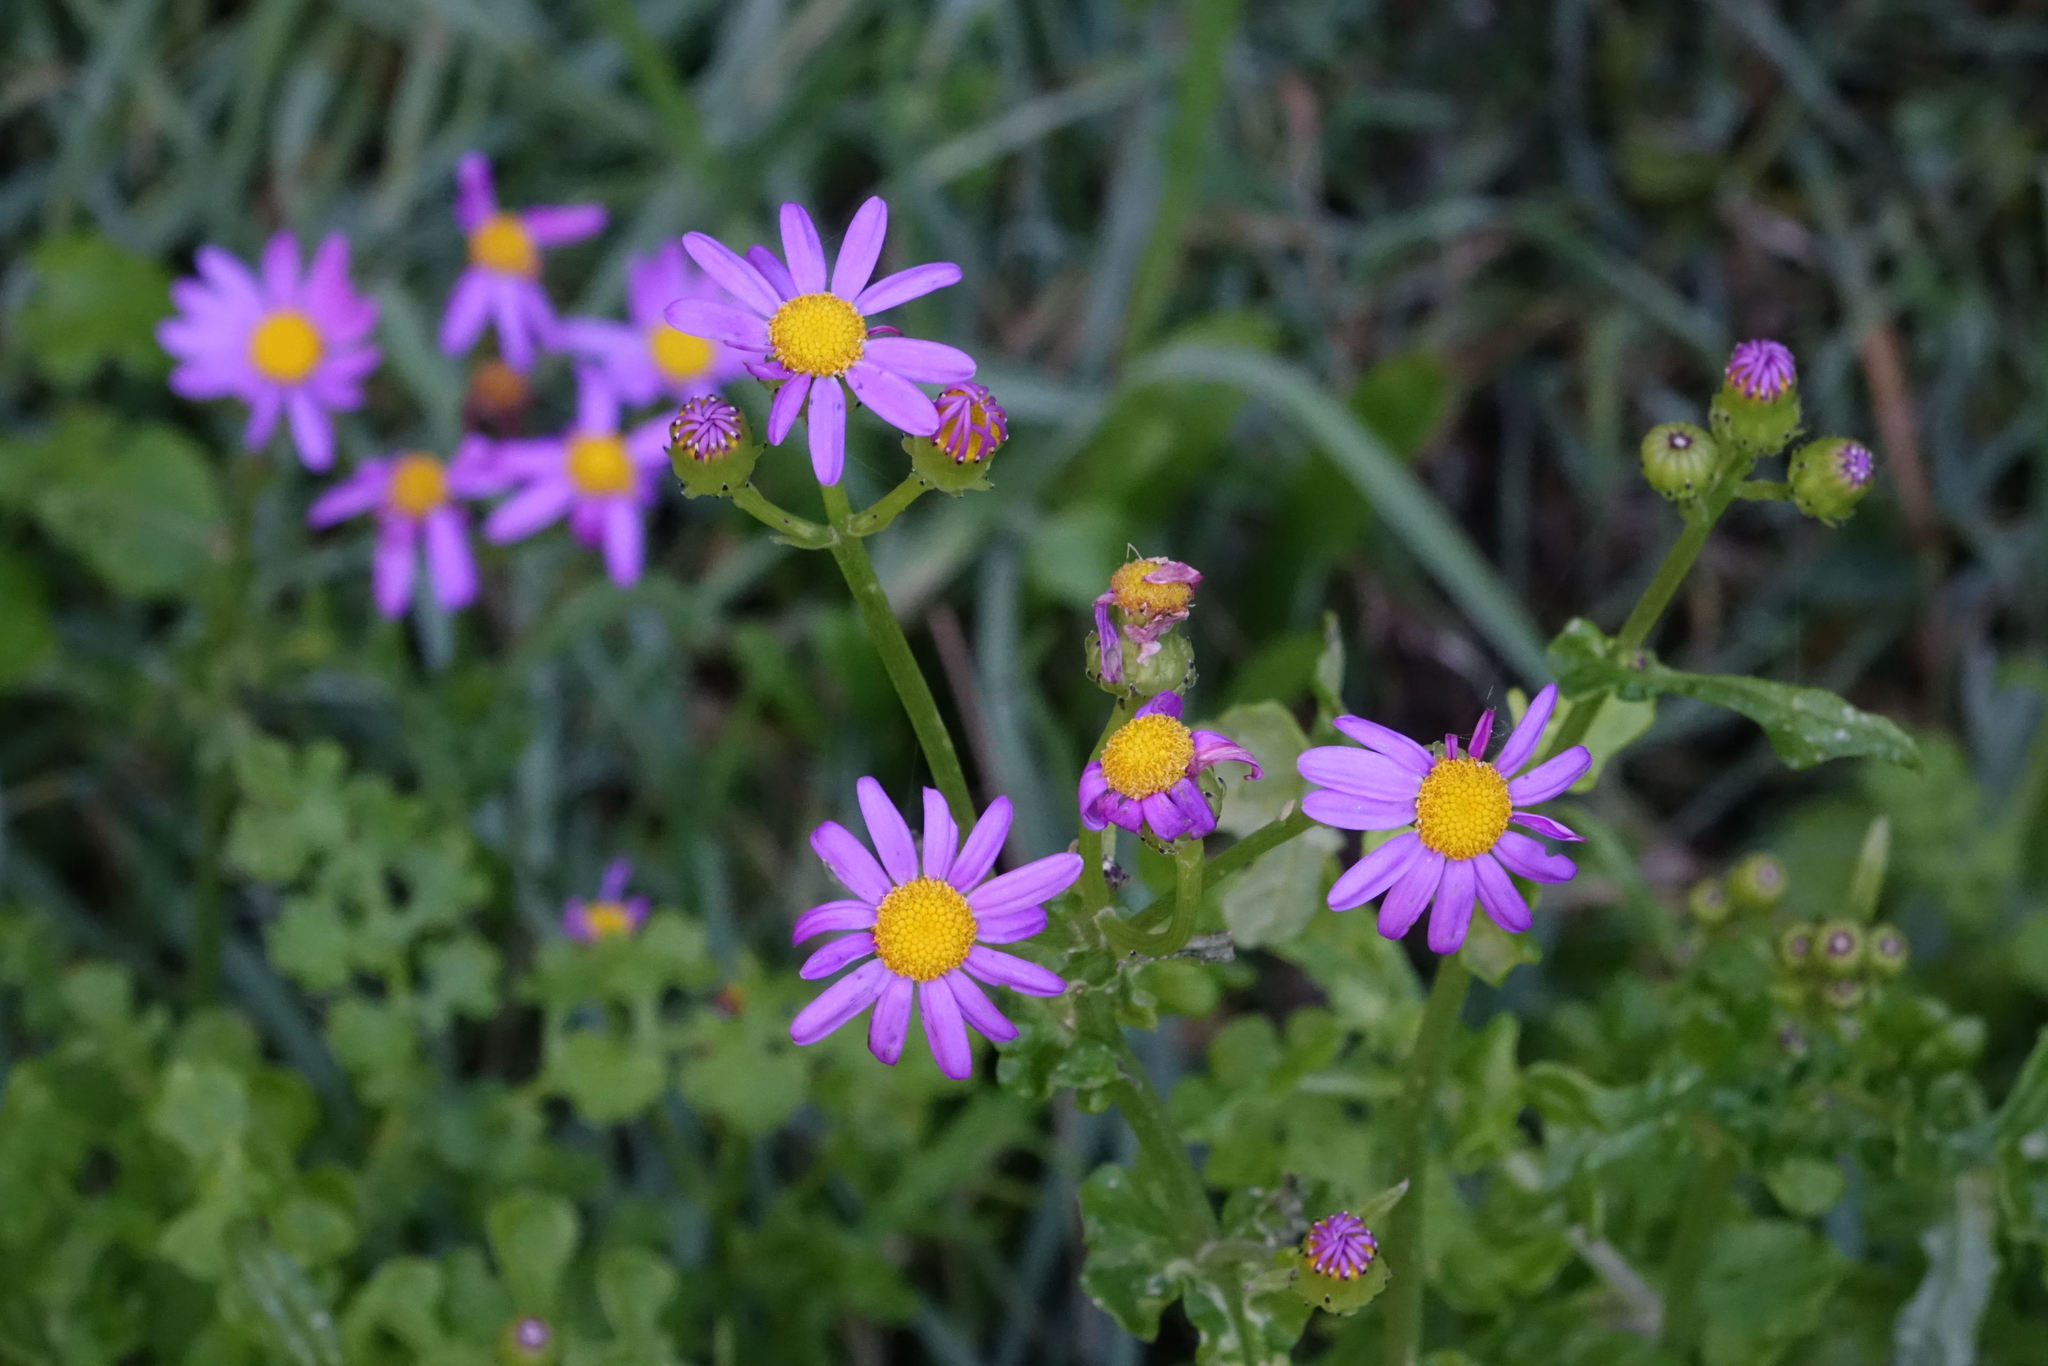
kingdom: Plantae
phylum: Tracheophyta
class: Magnoliopsida
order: Asterales
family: Asteraceae
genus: Senecio
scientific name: Senecio elegans
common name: Purple groundsel
